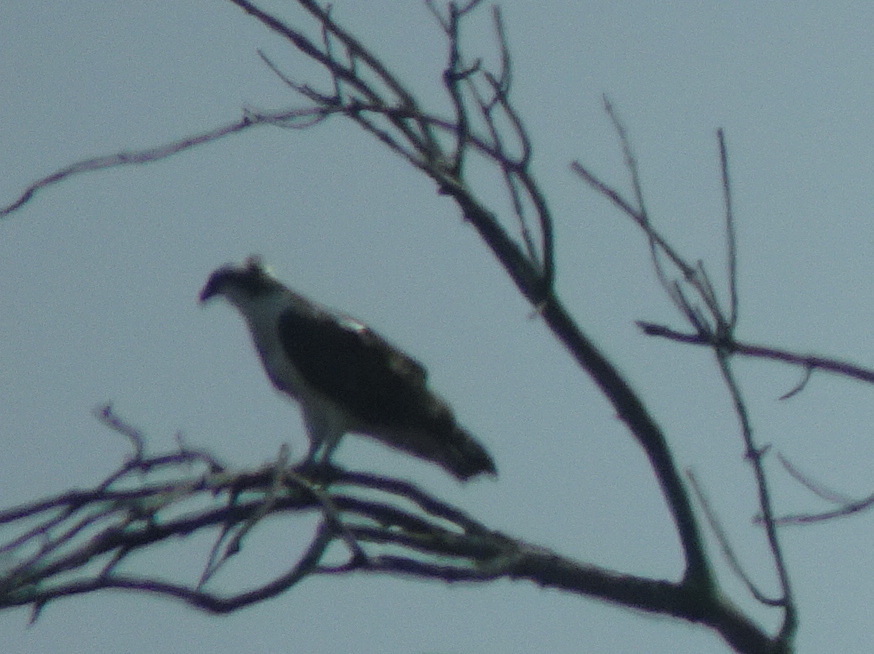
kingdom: Animalia
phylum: Chordata
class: Aves
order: Accipitriformes
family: Pandionidae
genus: Pandion
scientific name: Pandion haliaetus
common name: Osprey
